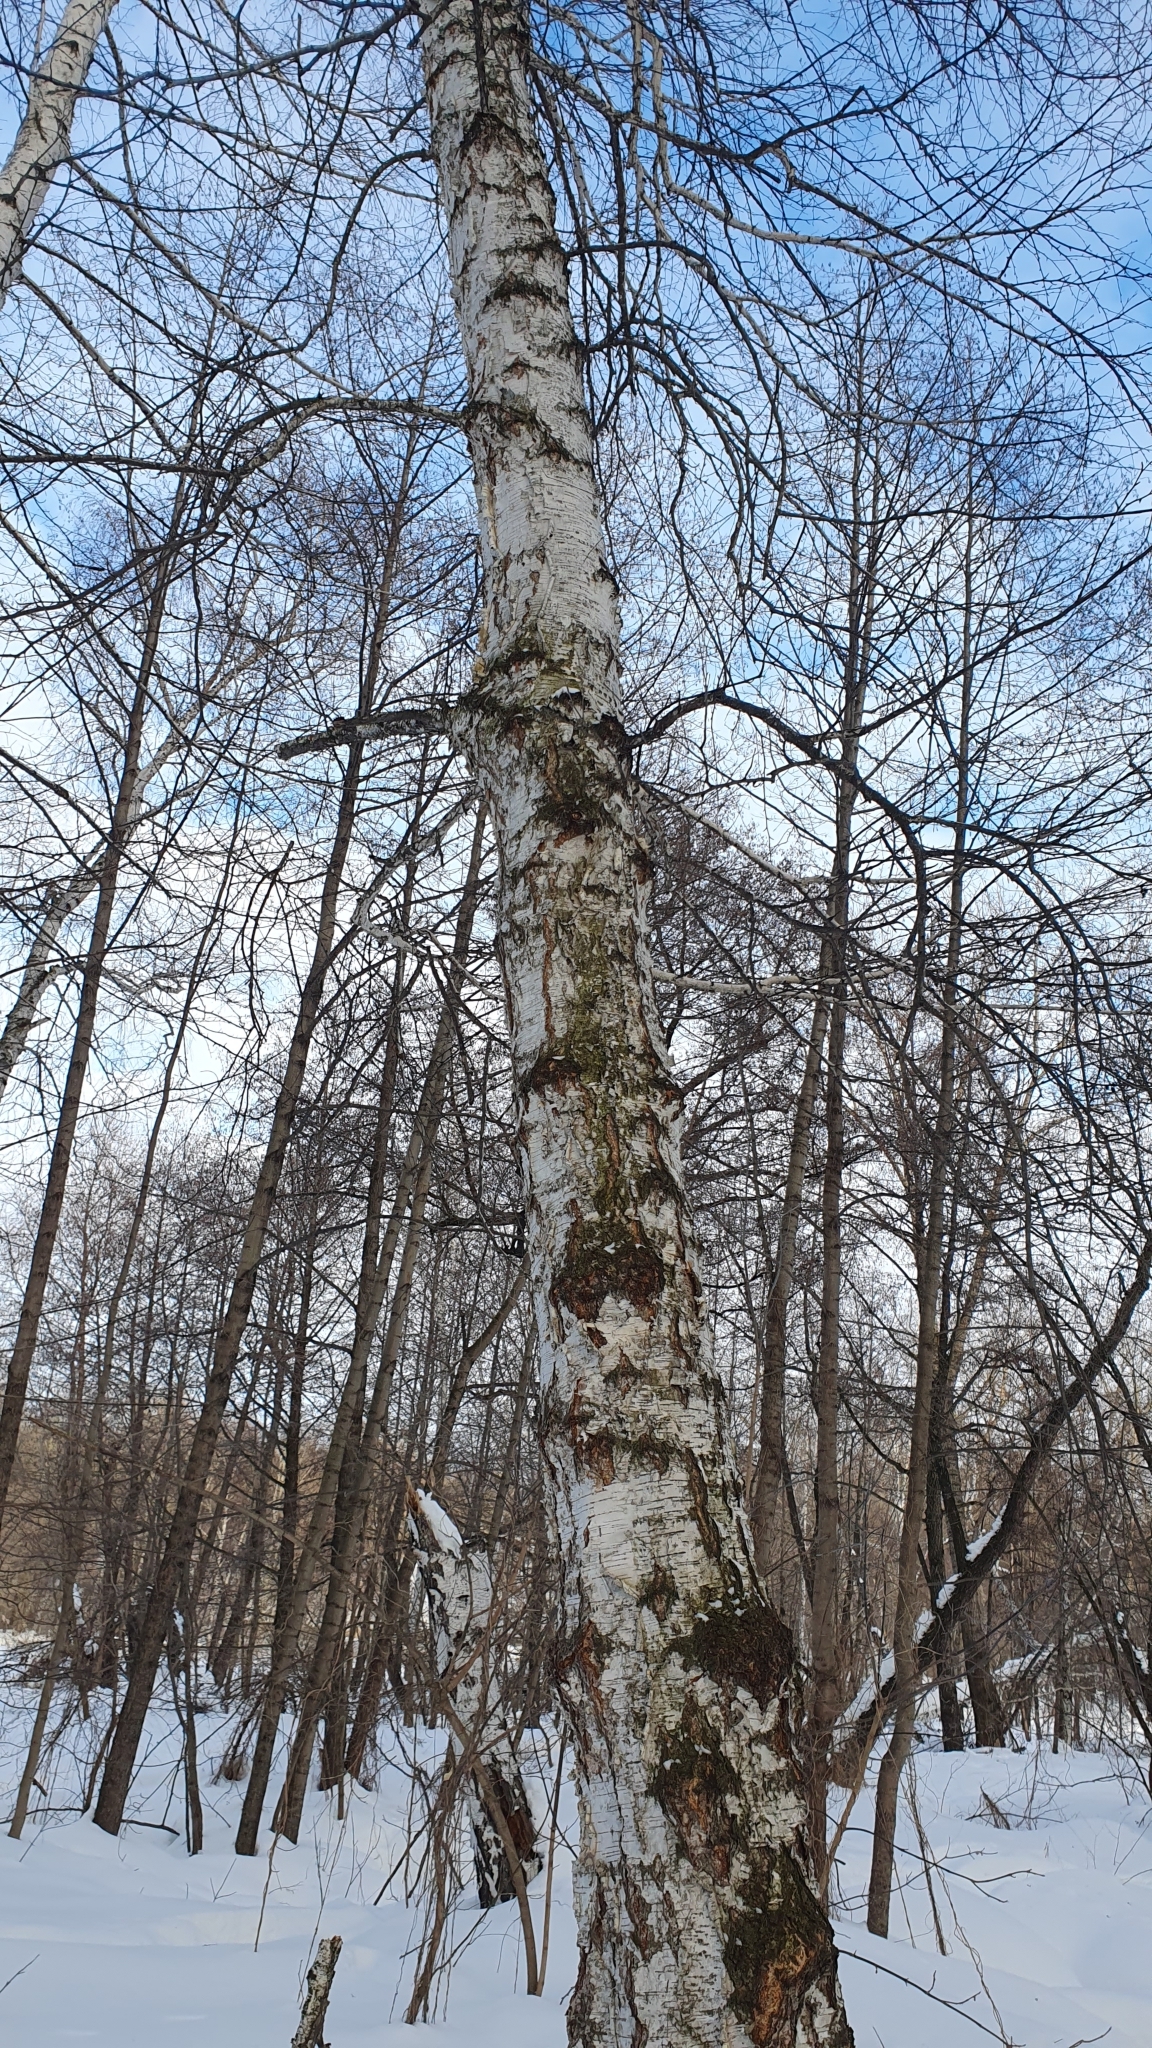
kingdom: Plantae
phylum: Tracheophyta
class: Magnoliopsida
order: Fagales
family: Betulaceae
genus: Betula
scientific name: Betula pendula
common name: Silver birch
